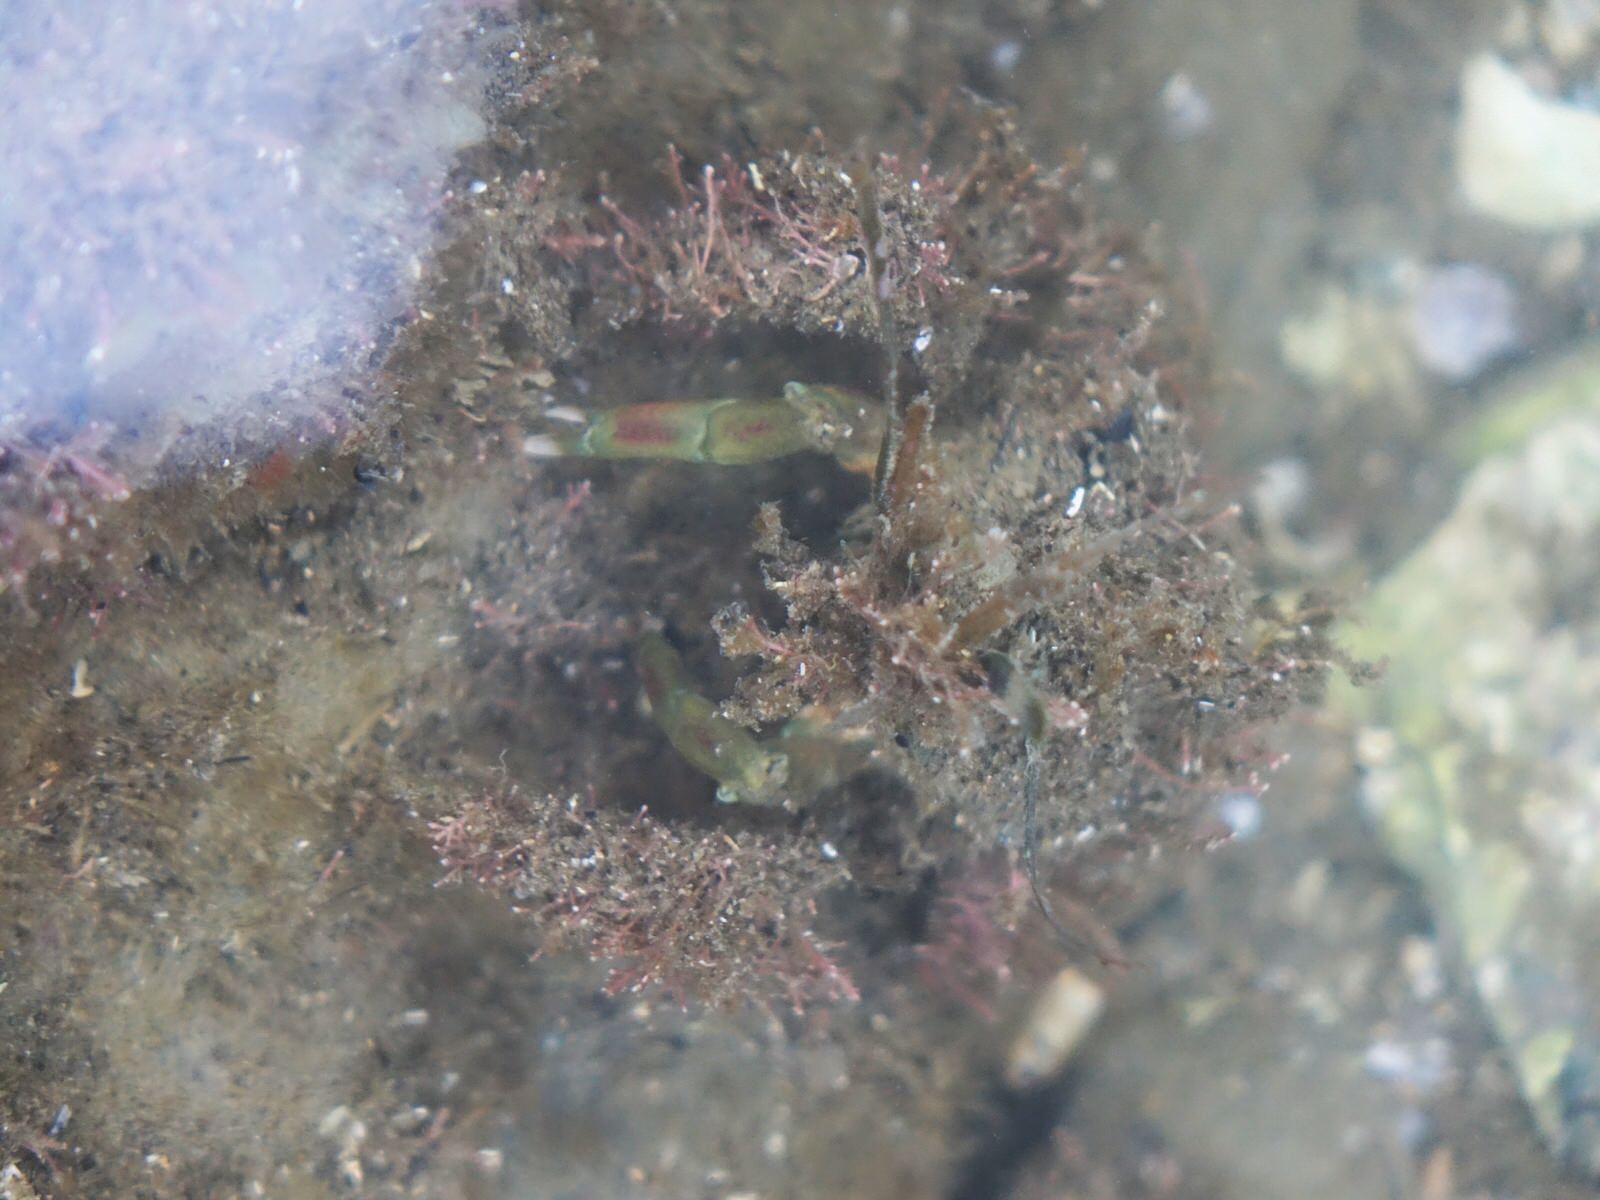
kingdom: Animalia
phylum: Arthropoda
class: Malacostraca
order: Decapoda
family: Majidae
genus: Notomithrax
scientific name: Notomithrax minor
